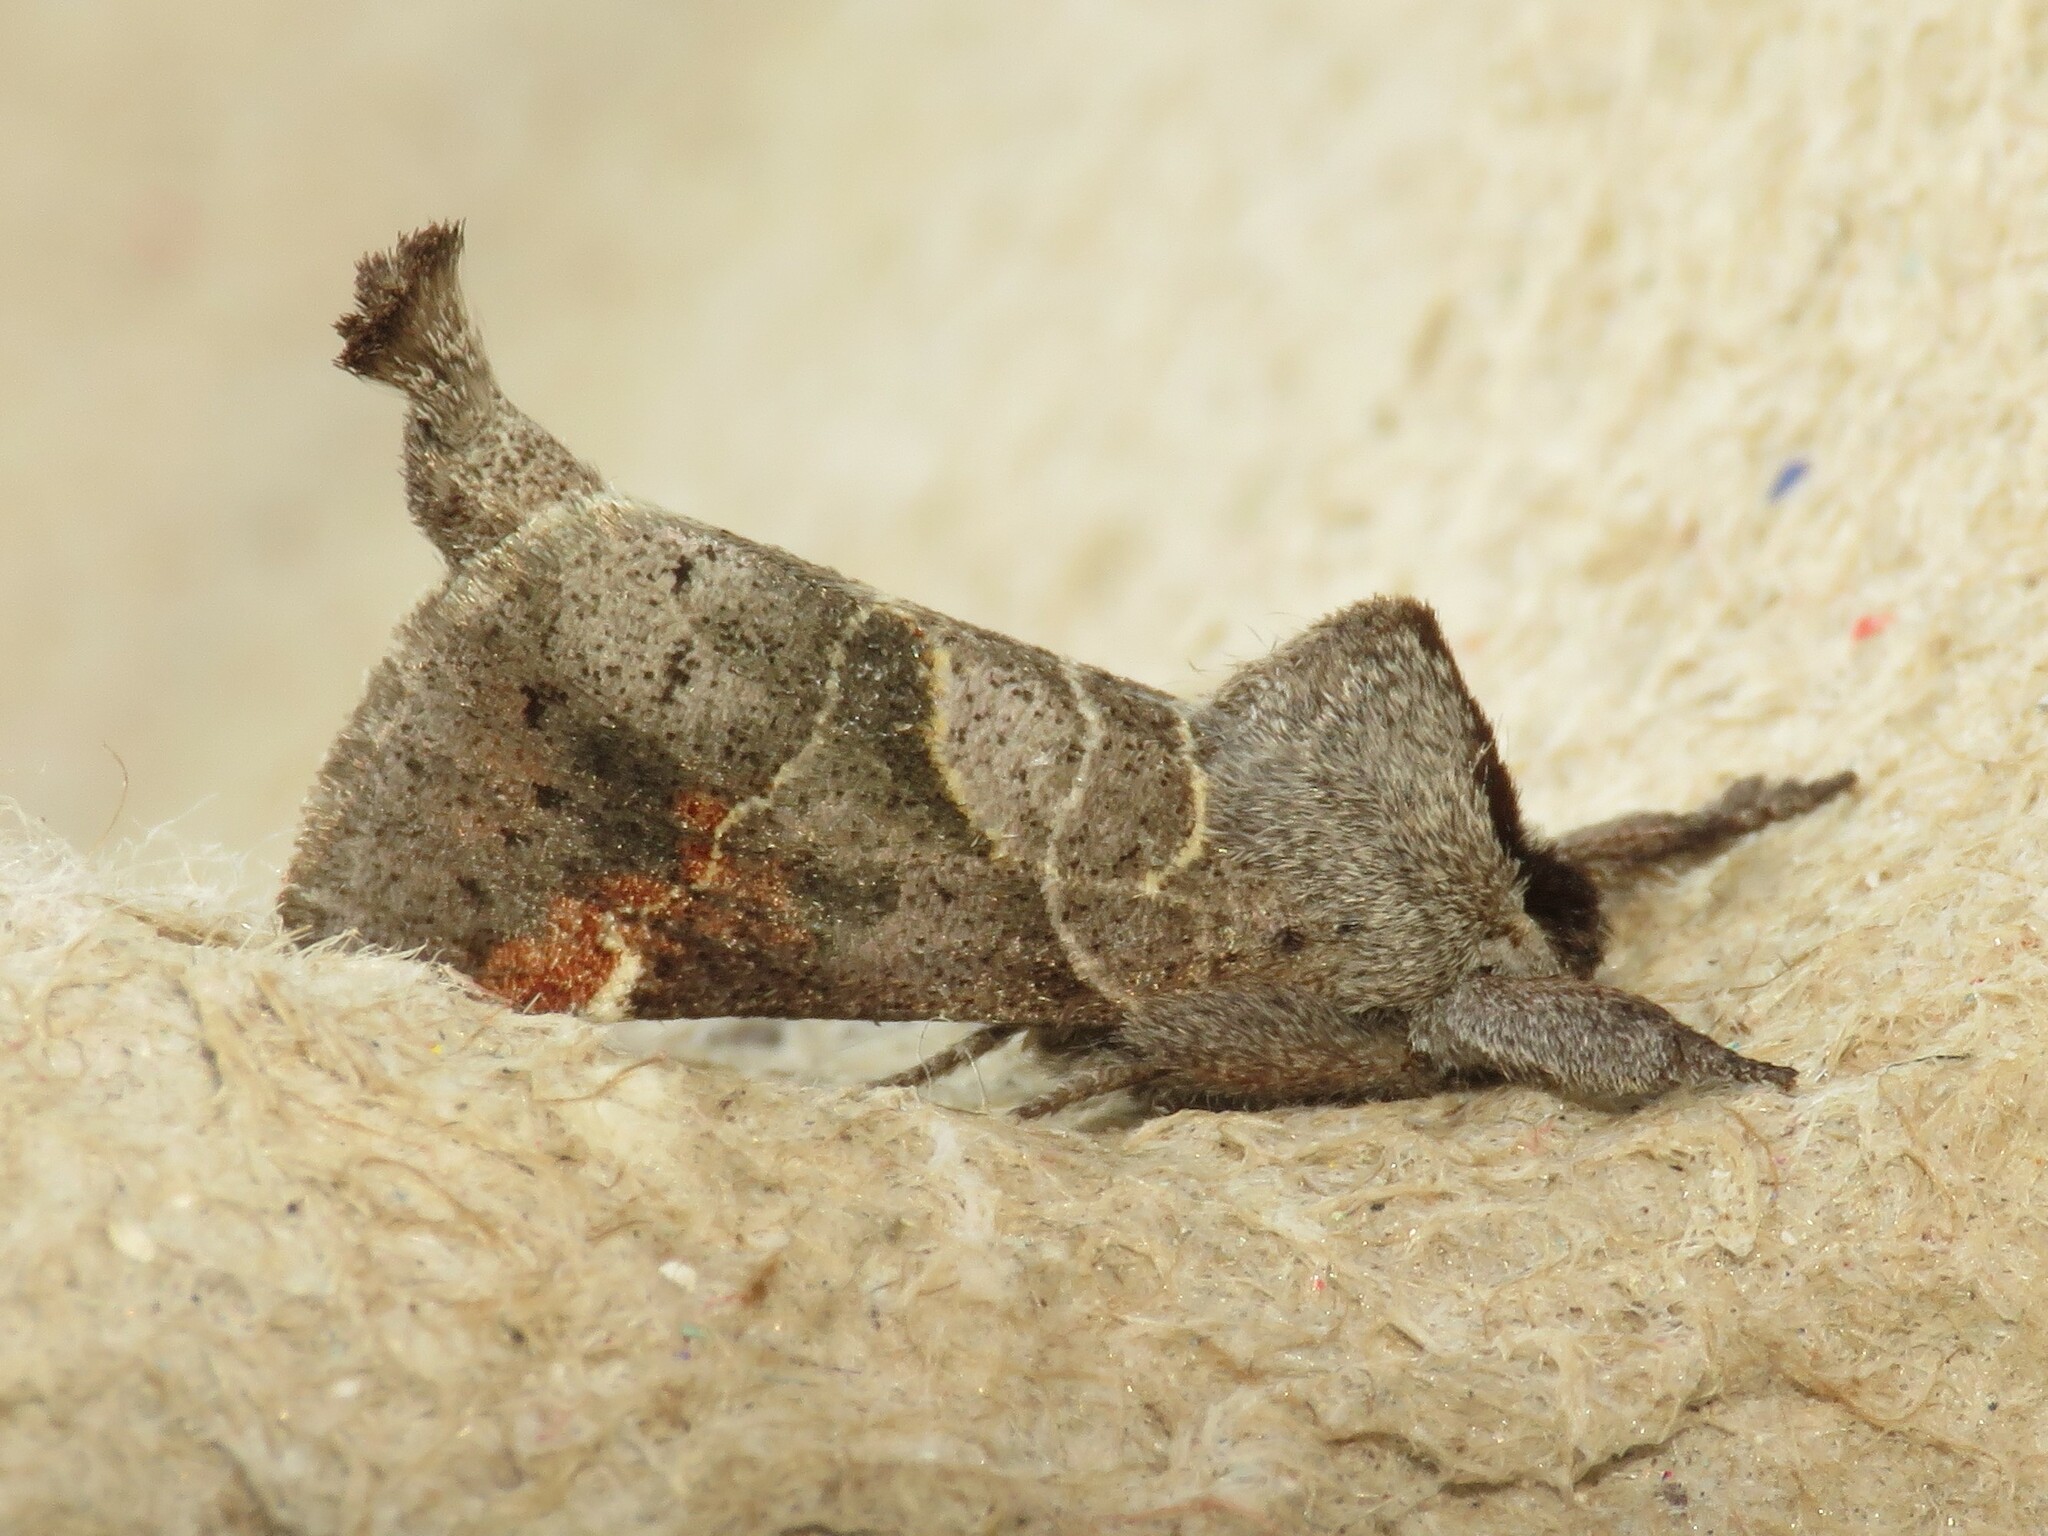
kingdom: Animalia
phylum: Arthropoda
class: Insecta
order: Lepidoptera
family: Notodontidae
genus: Clostera
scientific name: Clostera apicalis
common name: Apical prominent
